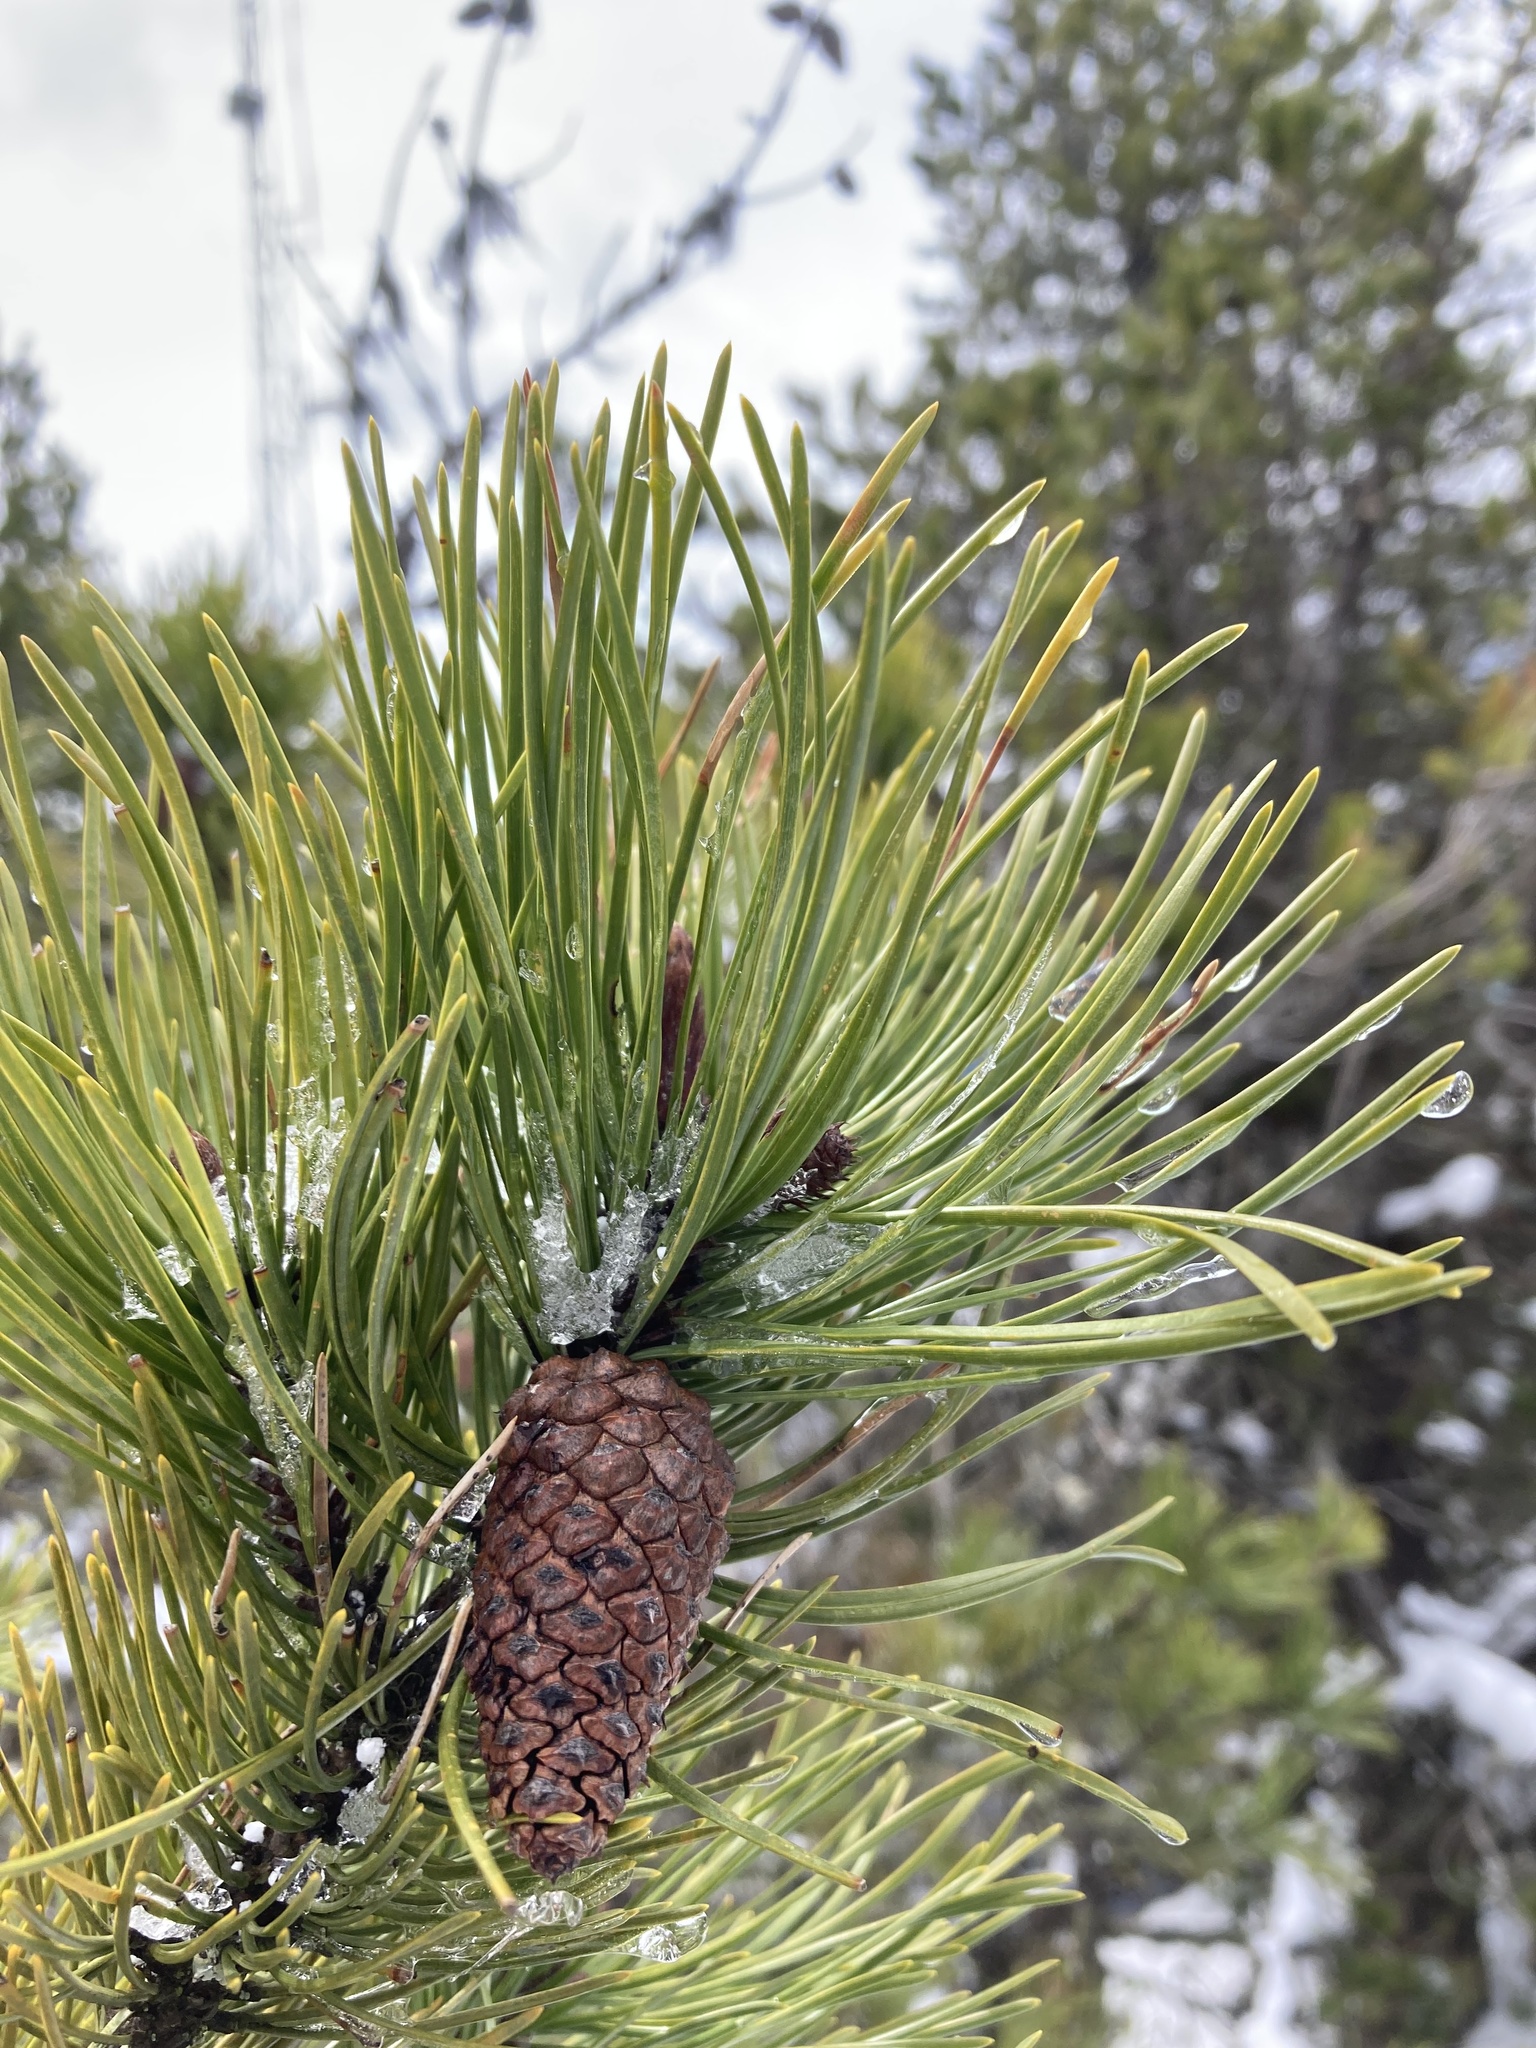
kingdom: Plantae
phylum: Tracheophyta
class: Pinopsida
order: Pinales
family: Pinaceae
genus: Pinus
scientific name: Pinus contorta
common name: Lodgepole pine
